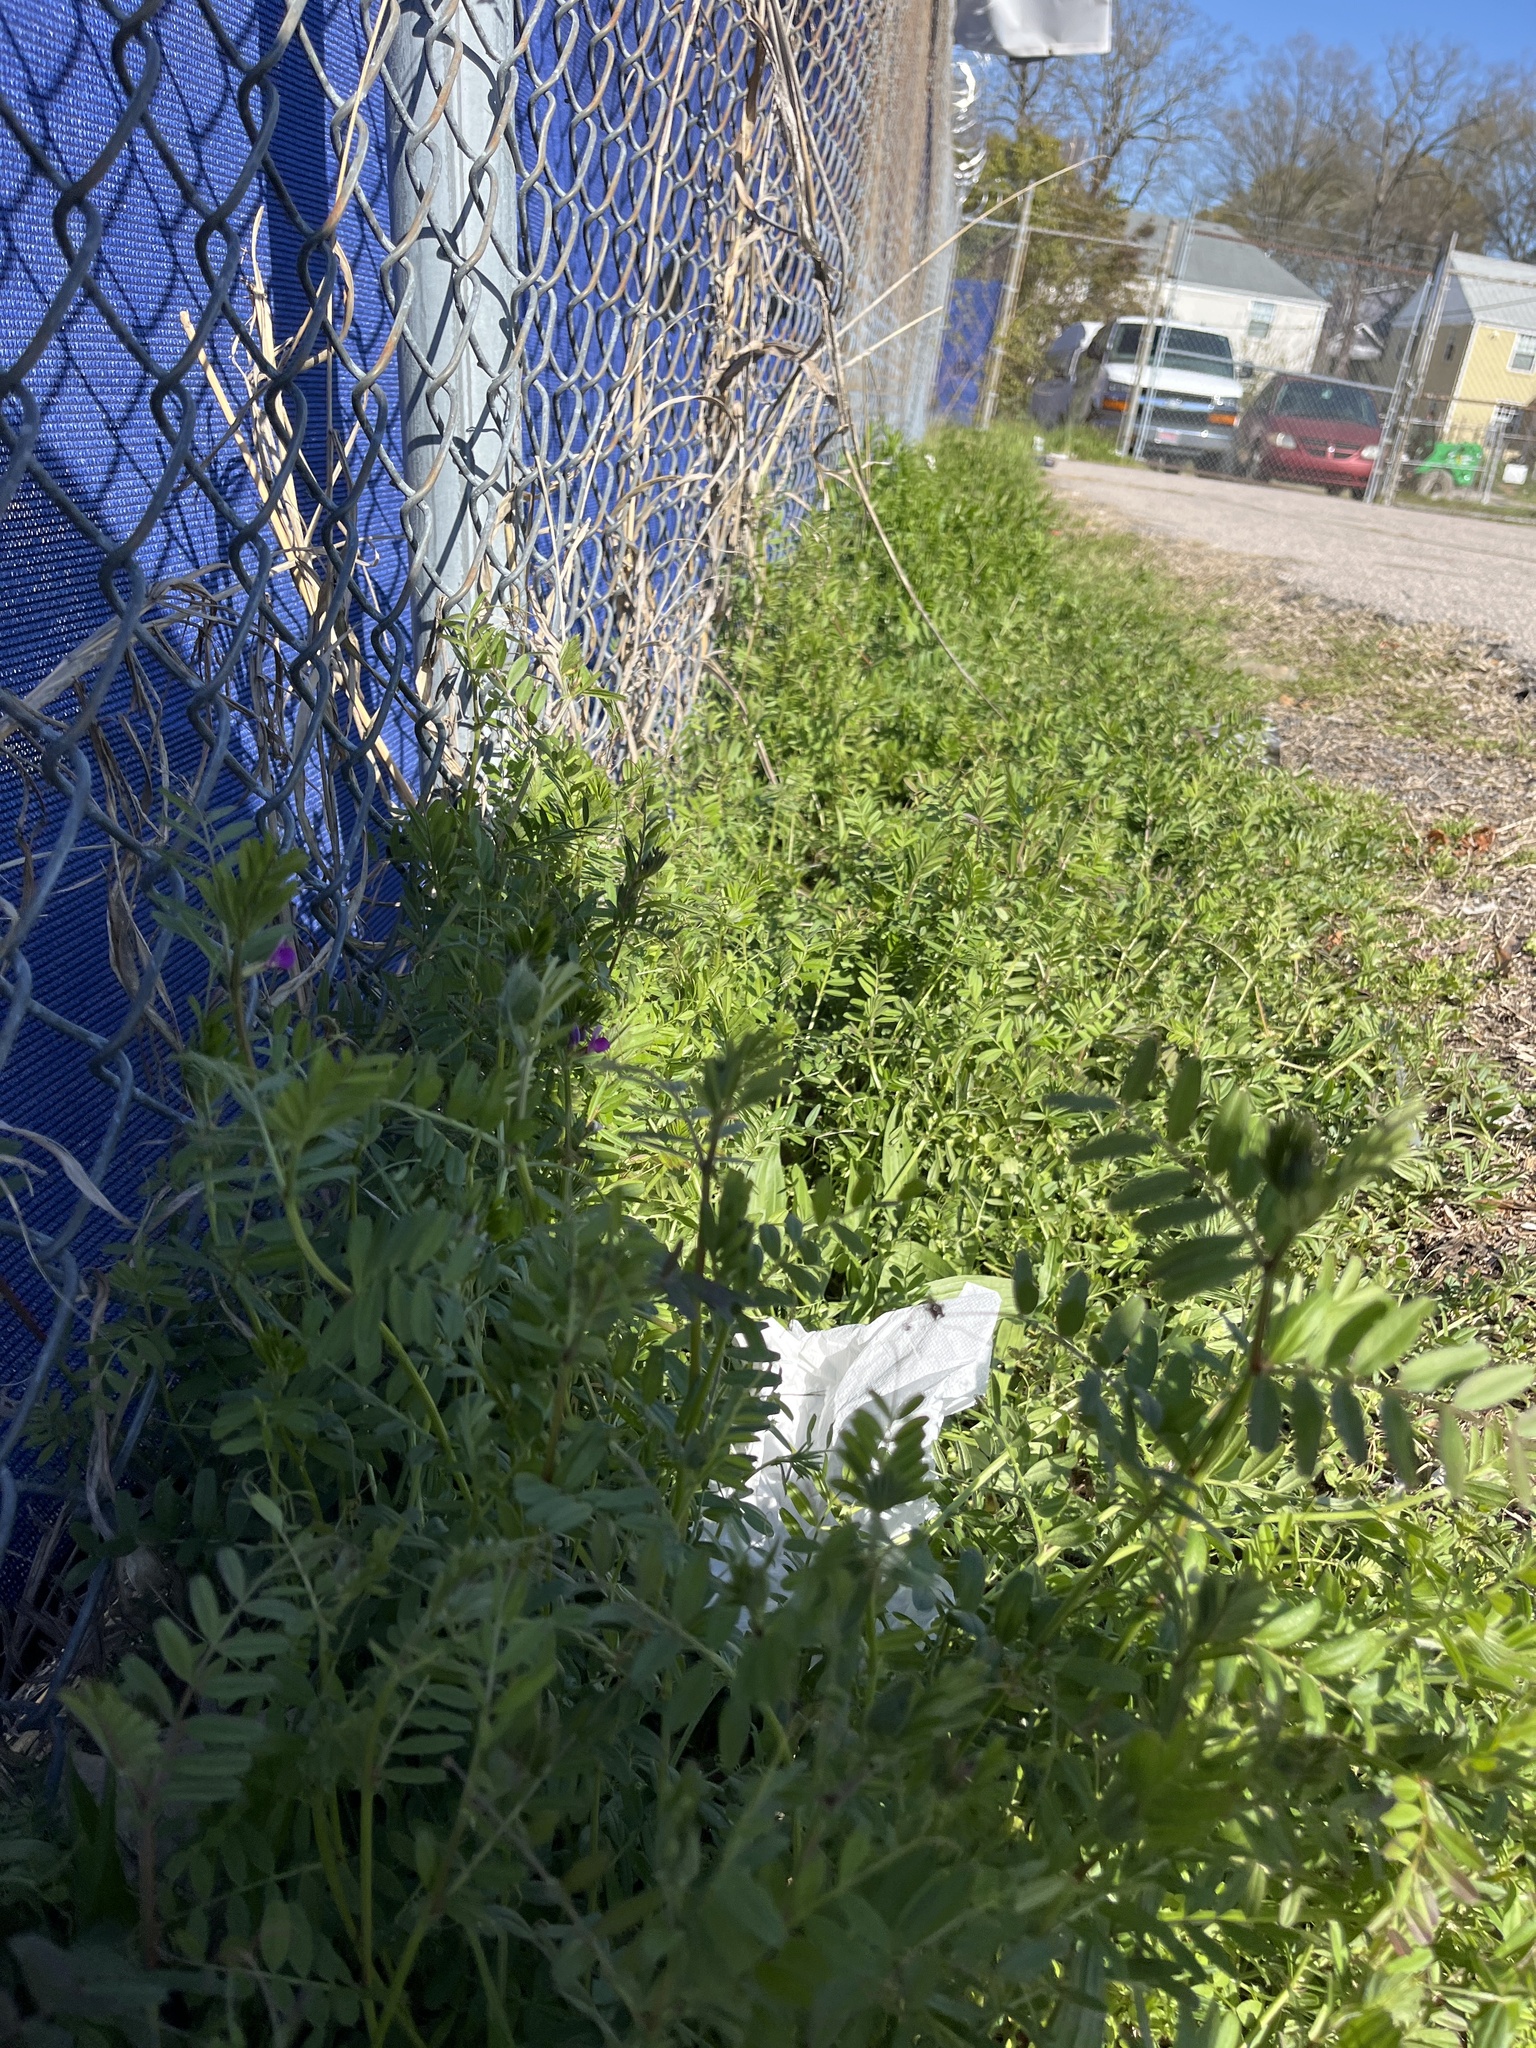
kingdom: Plantae
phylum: Tracheophyta
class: Magnoliopsida
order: Fabales
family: Fabaceae
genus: Vicia
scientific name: Vicia sativa
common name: Garden vetch
